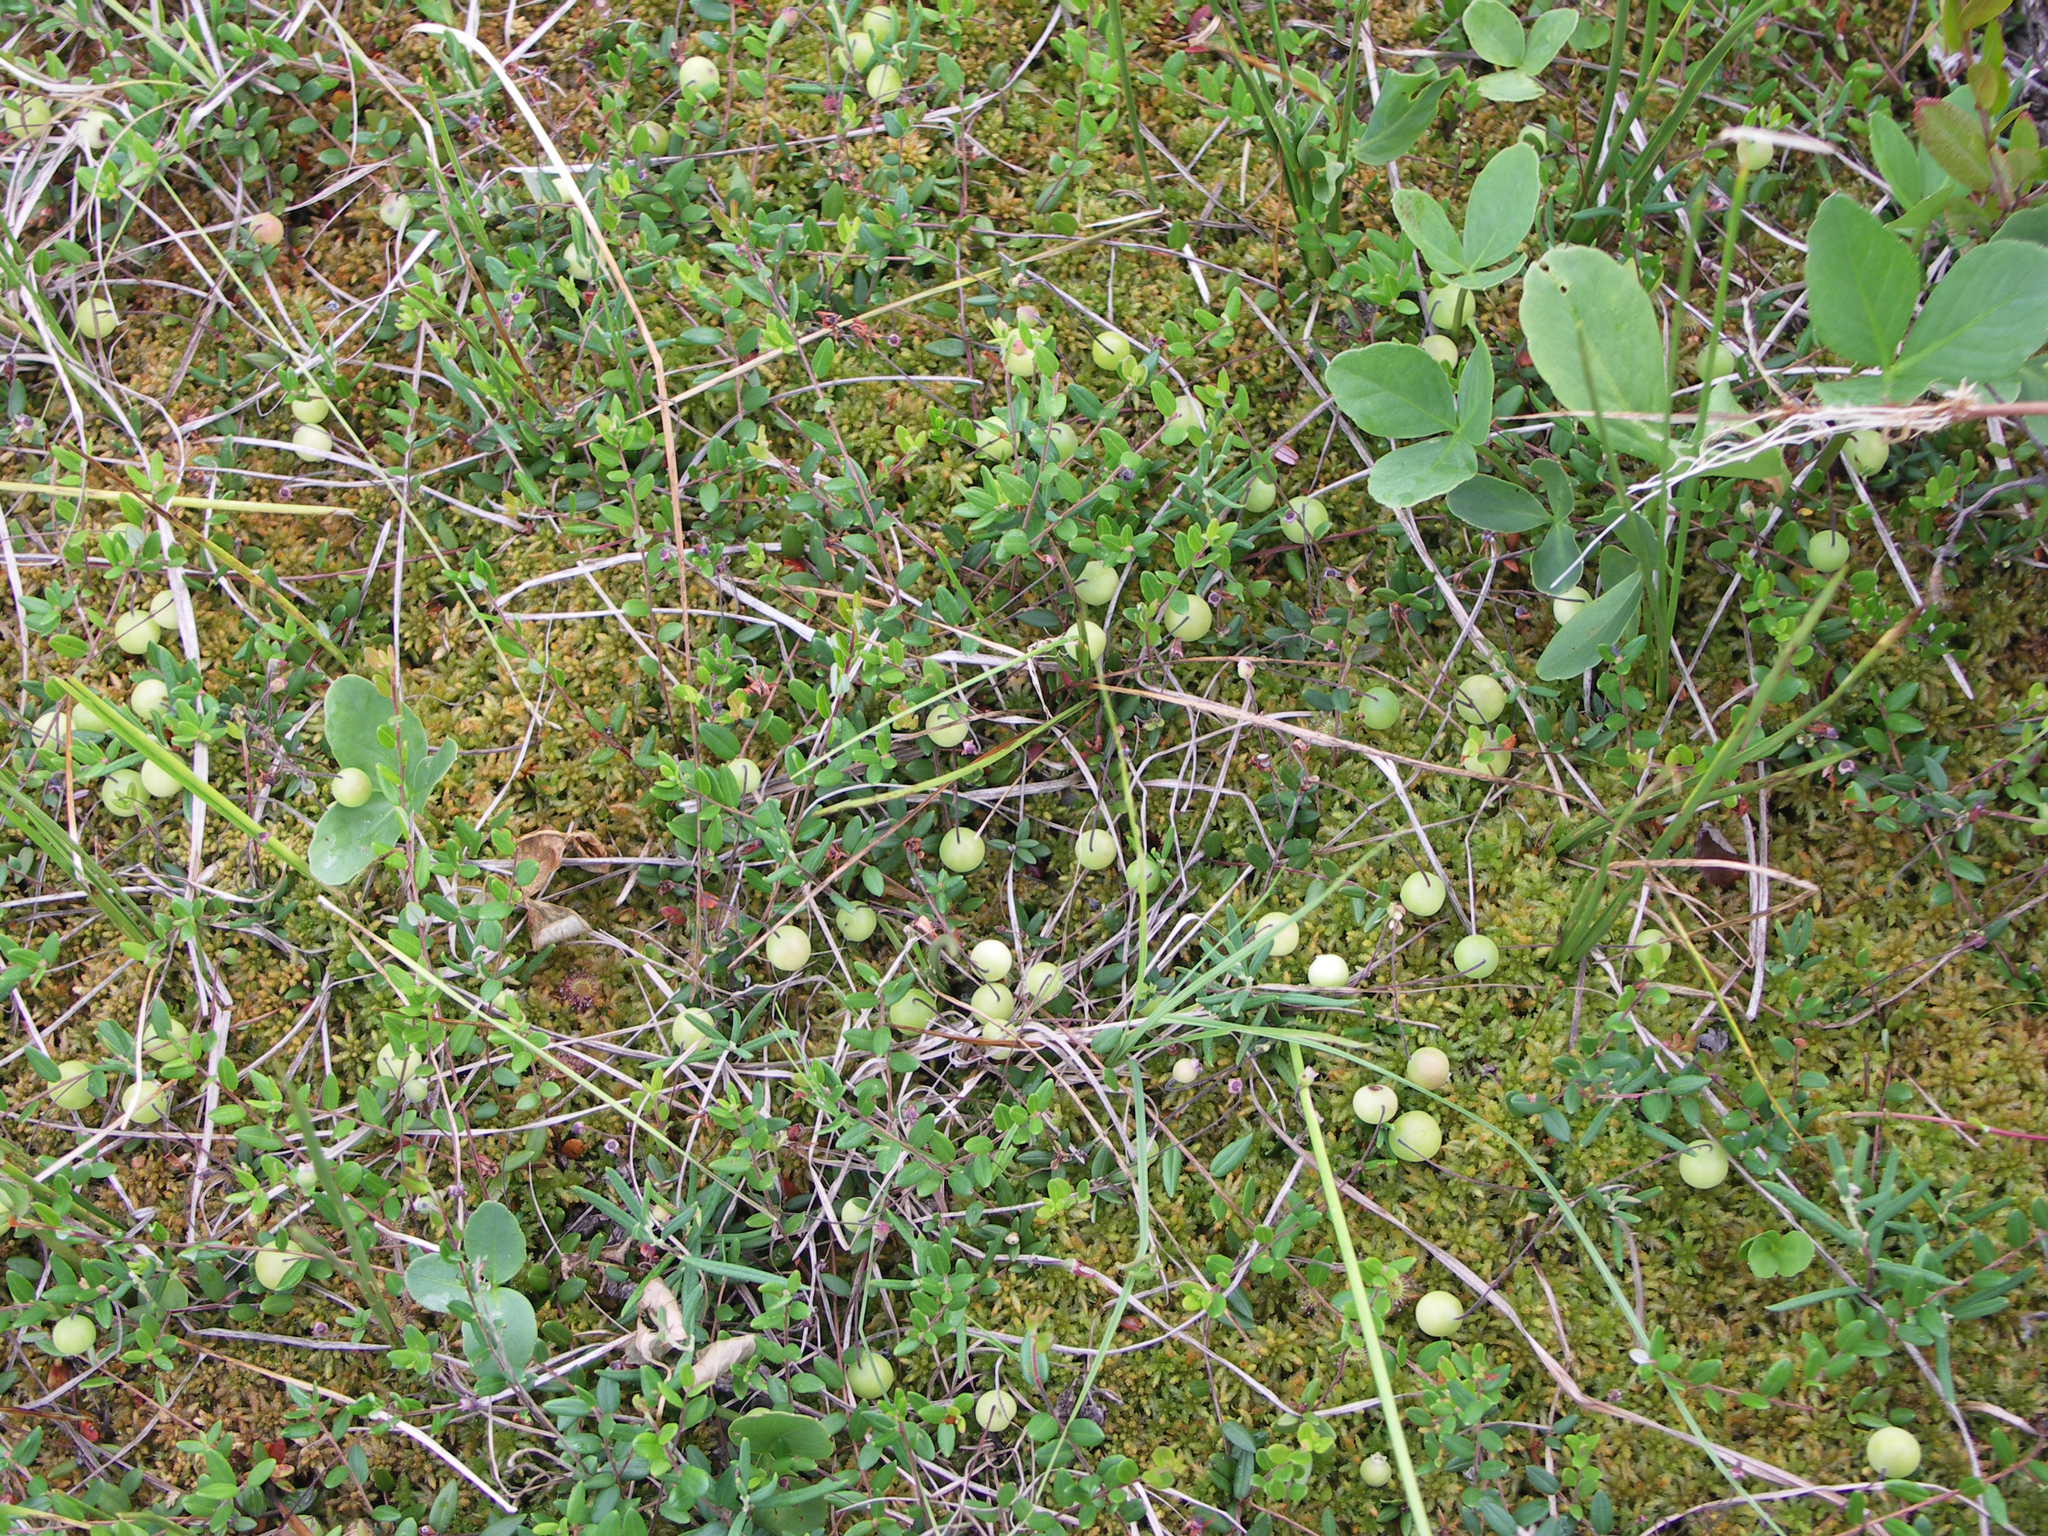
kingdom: Plantae
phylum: Tracheophyta
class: Magnoliopsida
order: Ericales
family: Ericaceae
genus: Vaccinium
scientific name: Vaccinium oxycoccos
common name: Cranberry
